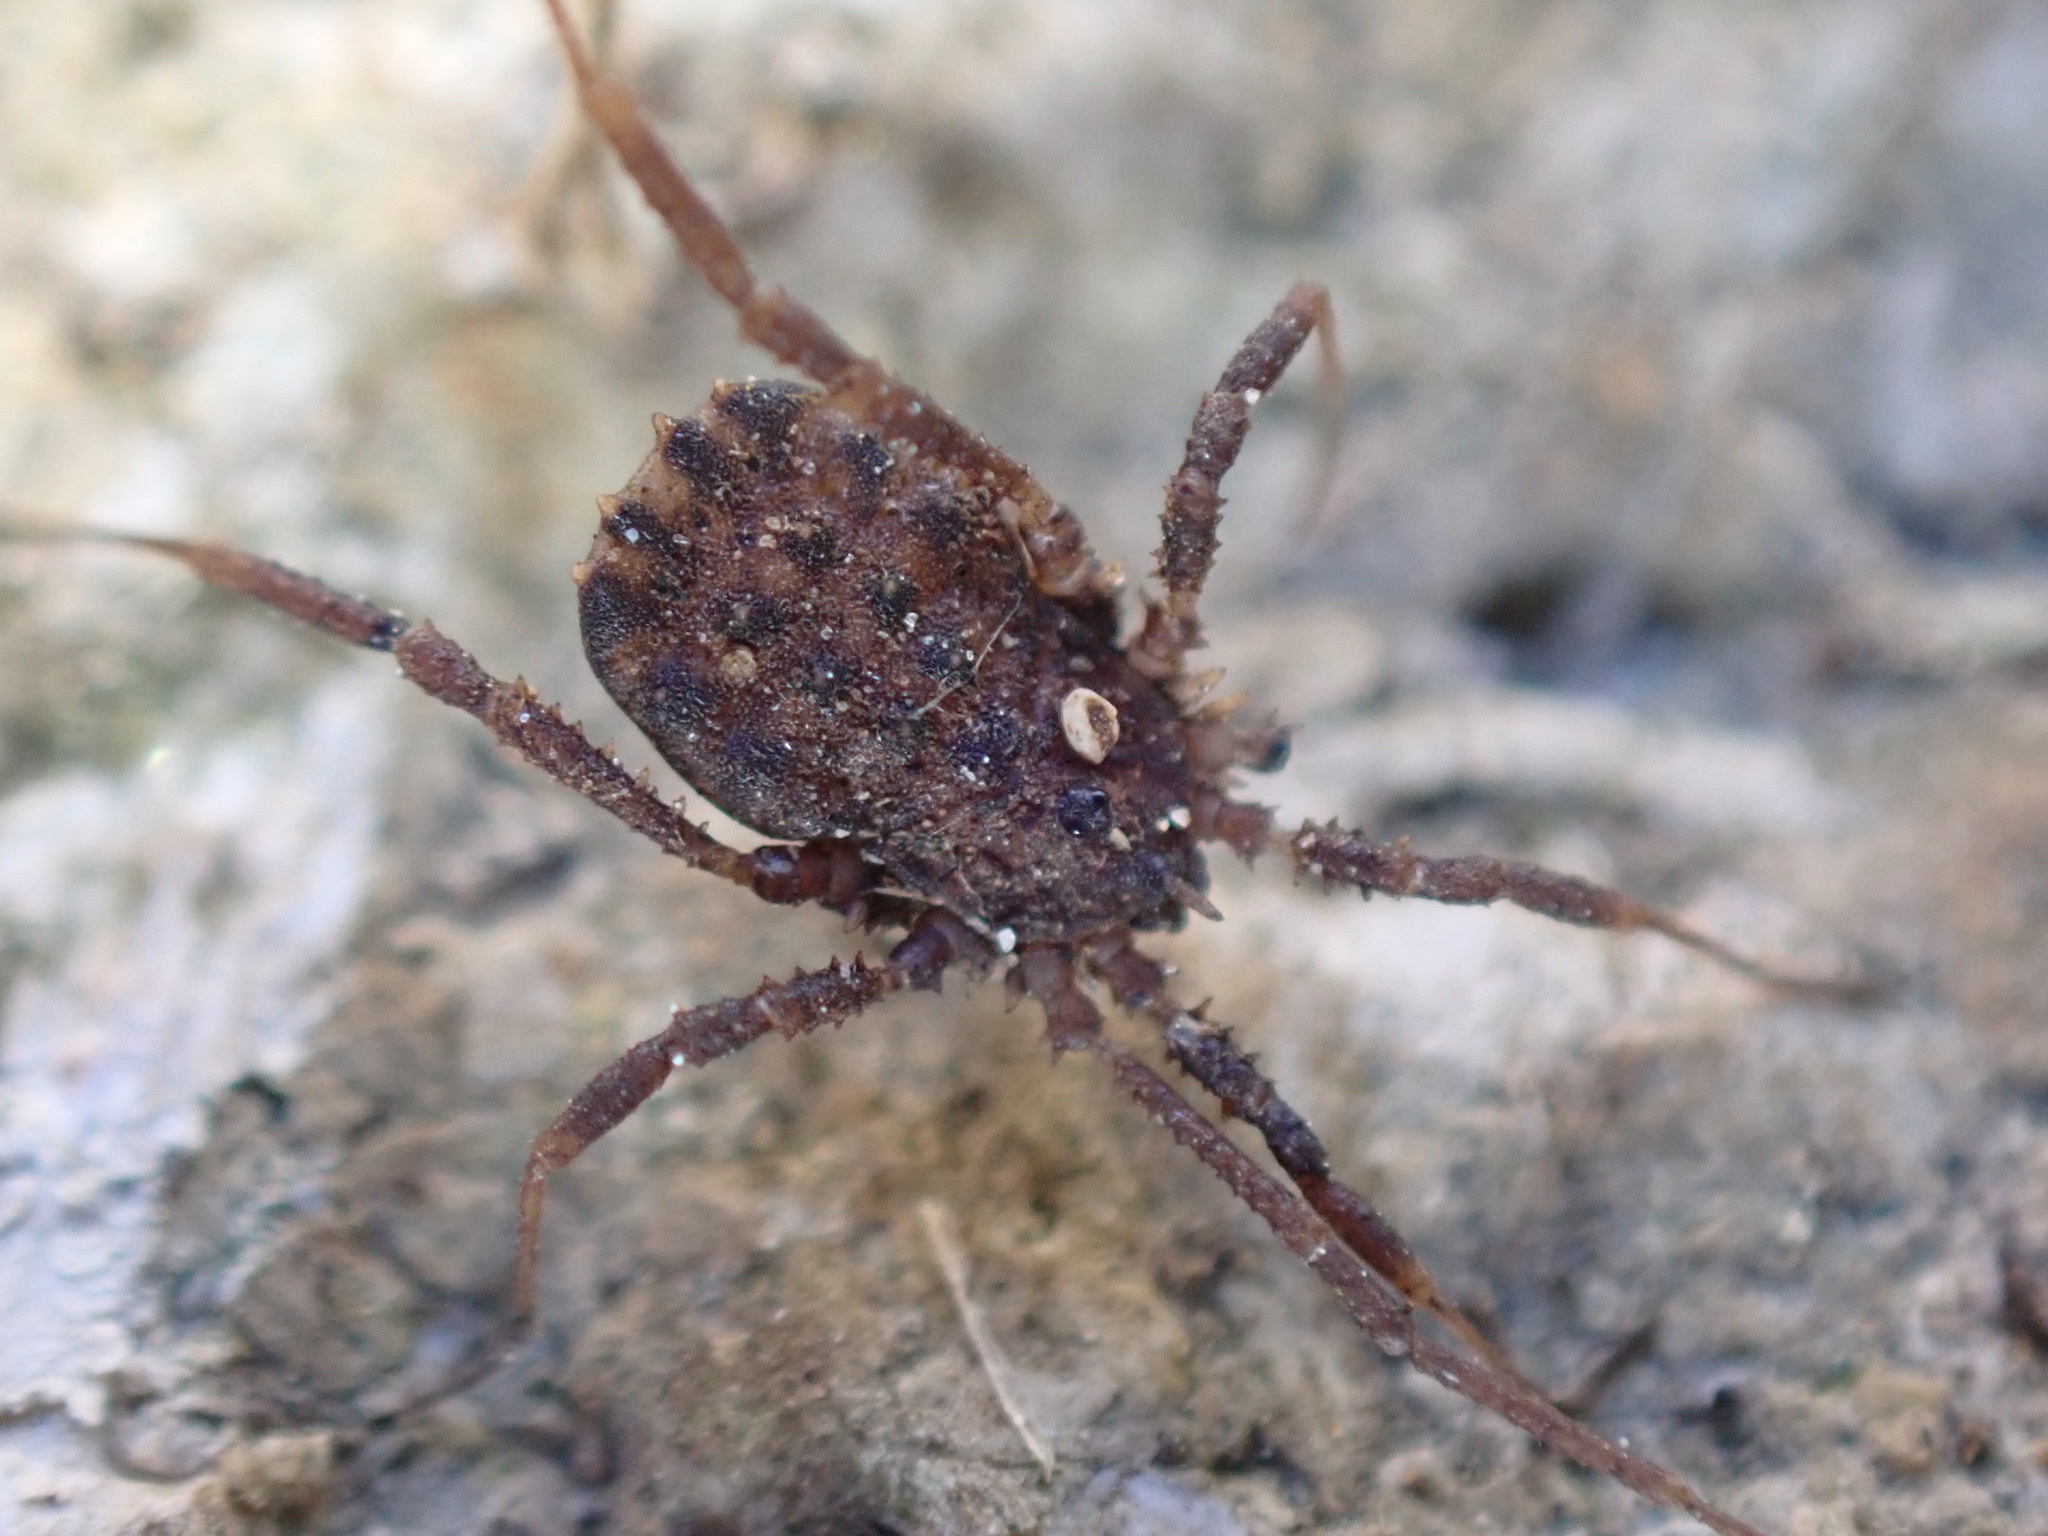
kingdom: Animalia
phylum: Arthropoda
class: Arachnida
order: Opiliones
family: Sclerosomatidae
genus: Homalenotus
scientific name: Homalenotus quadridentatus
